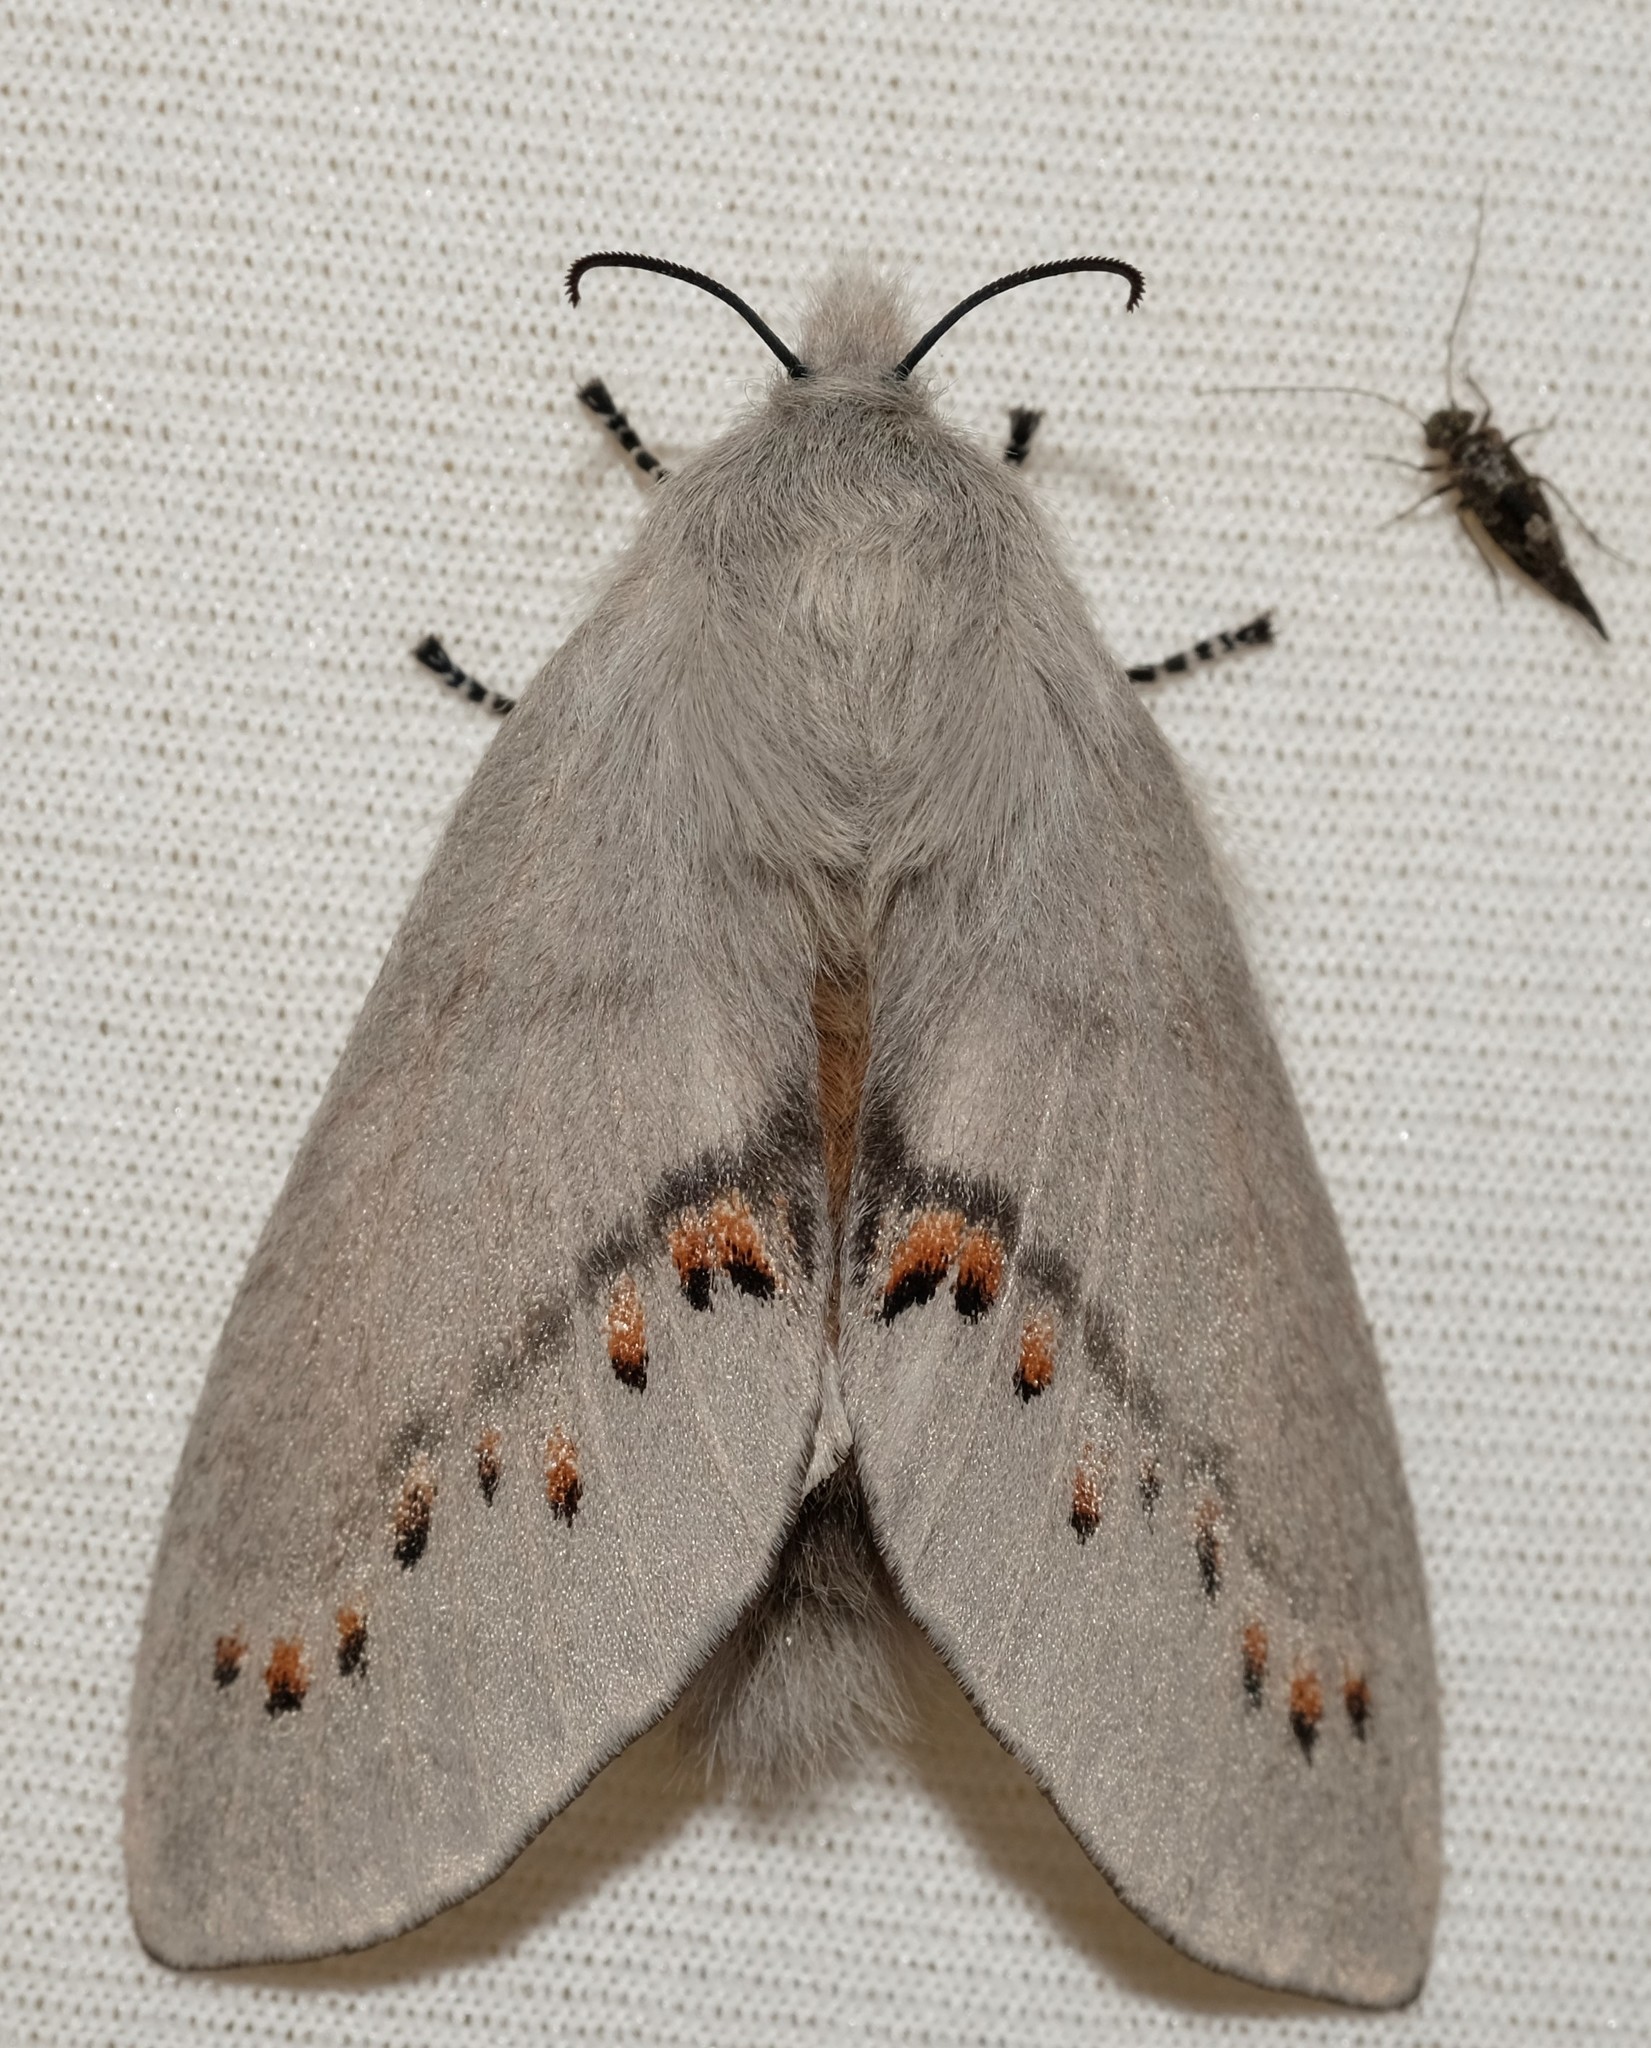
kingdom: Animalia
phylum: Arthropoda
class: Insecta
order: Lepidoptera
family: Lasiocampidae
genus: Pinara
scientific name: Pinara obliqua
